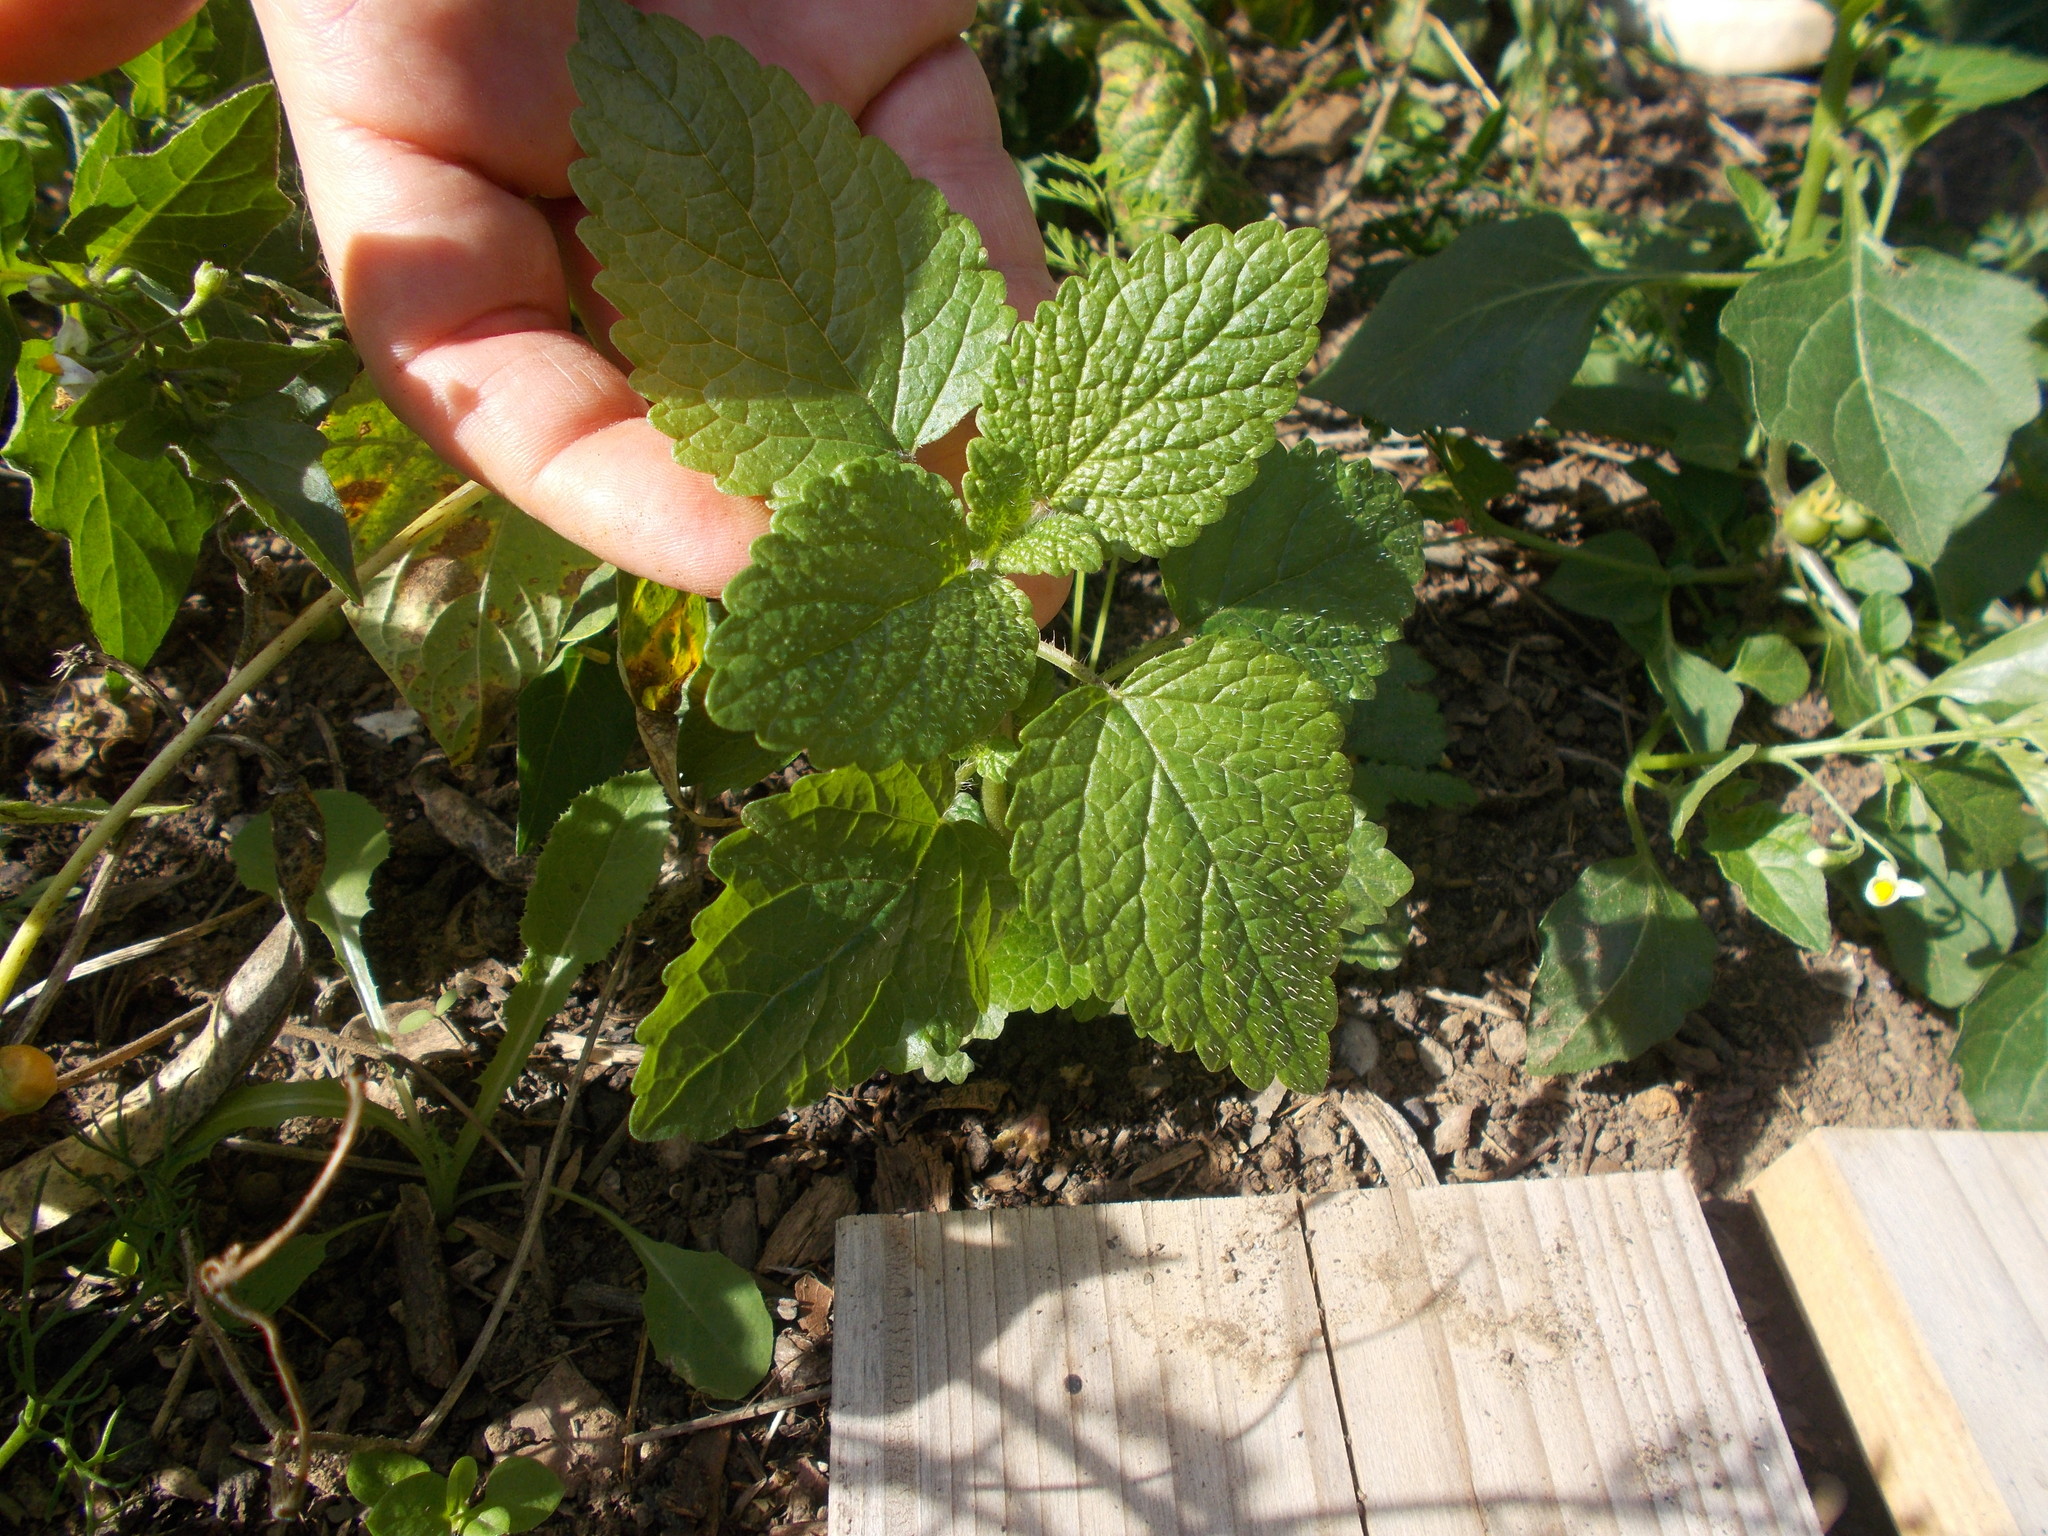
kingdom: Plantae
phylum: Tracheophyta
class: Magnoliopsida
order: Lamiales
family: Lamiaceae
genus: Melissa
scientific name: Melissa officinalis
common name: Balm
